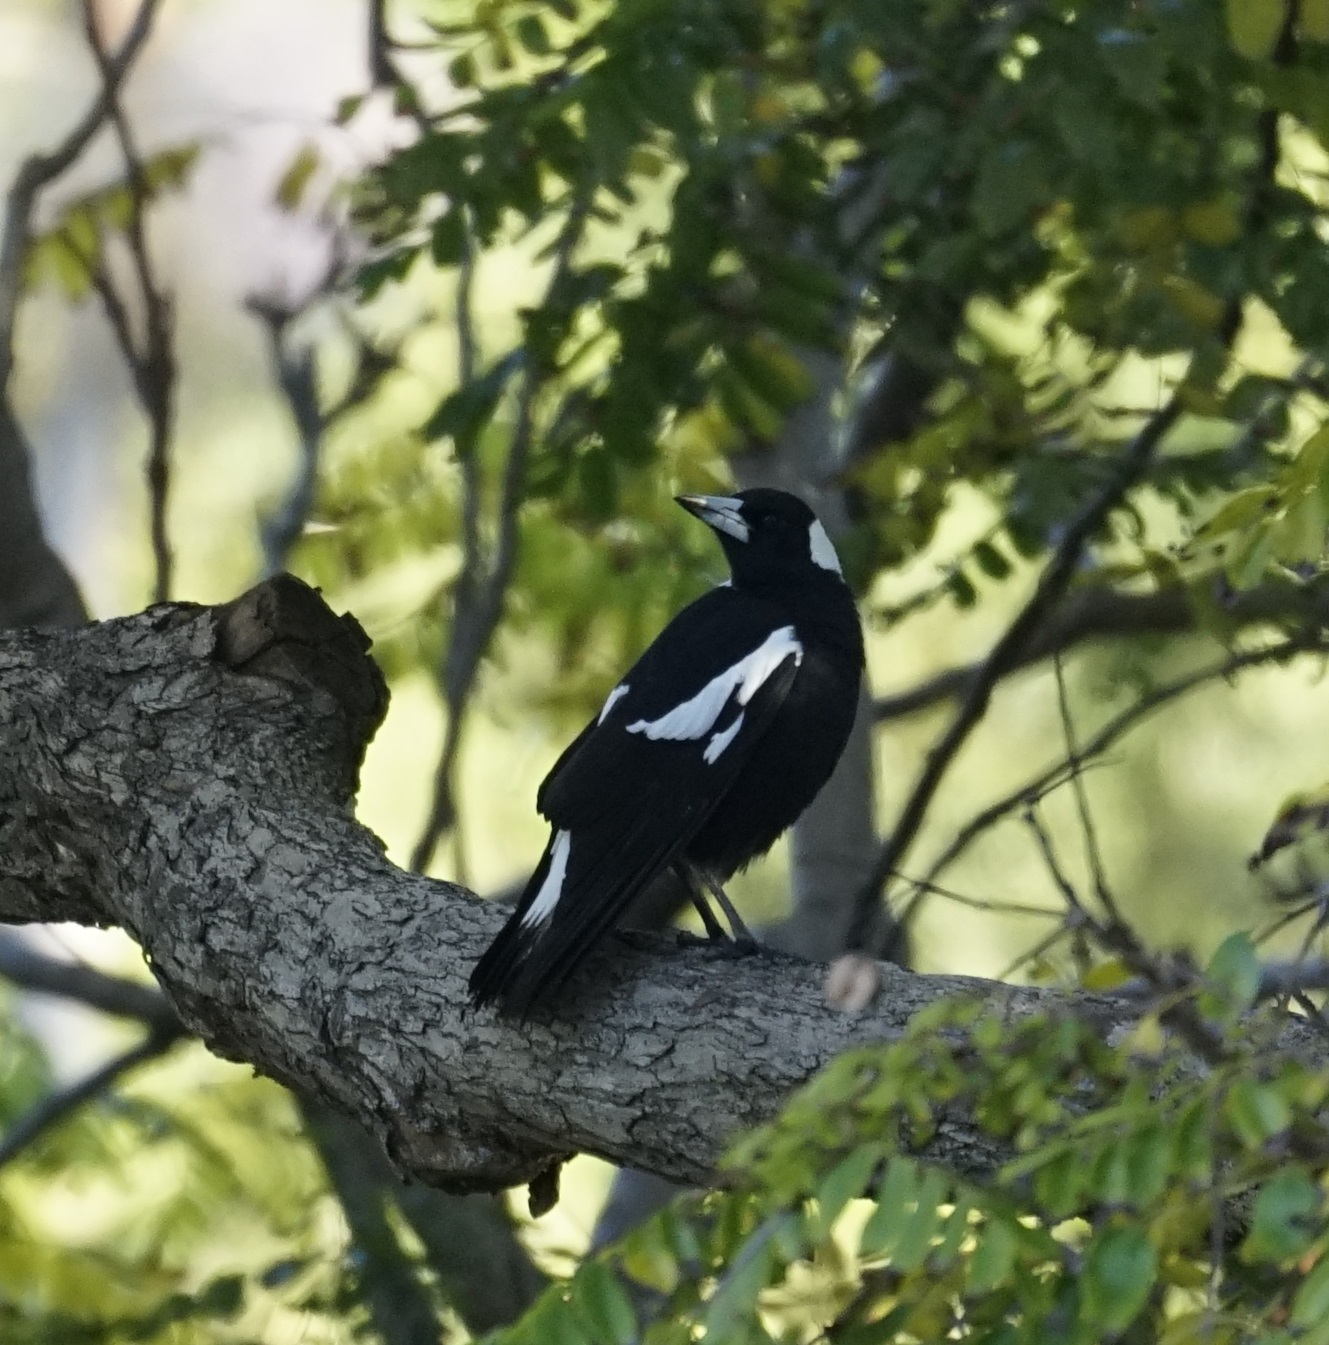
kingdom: Animalia
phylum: Chordata
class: Aves
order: Passeriformes
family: Cracticidae
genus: Gymnorhina
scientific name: Gymnorhina tibicen
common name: Australian magpie
